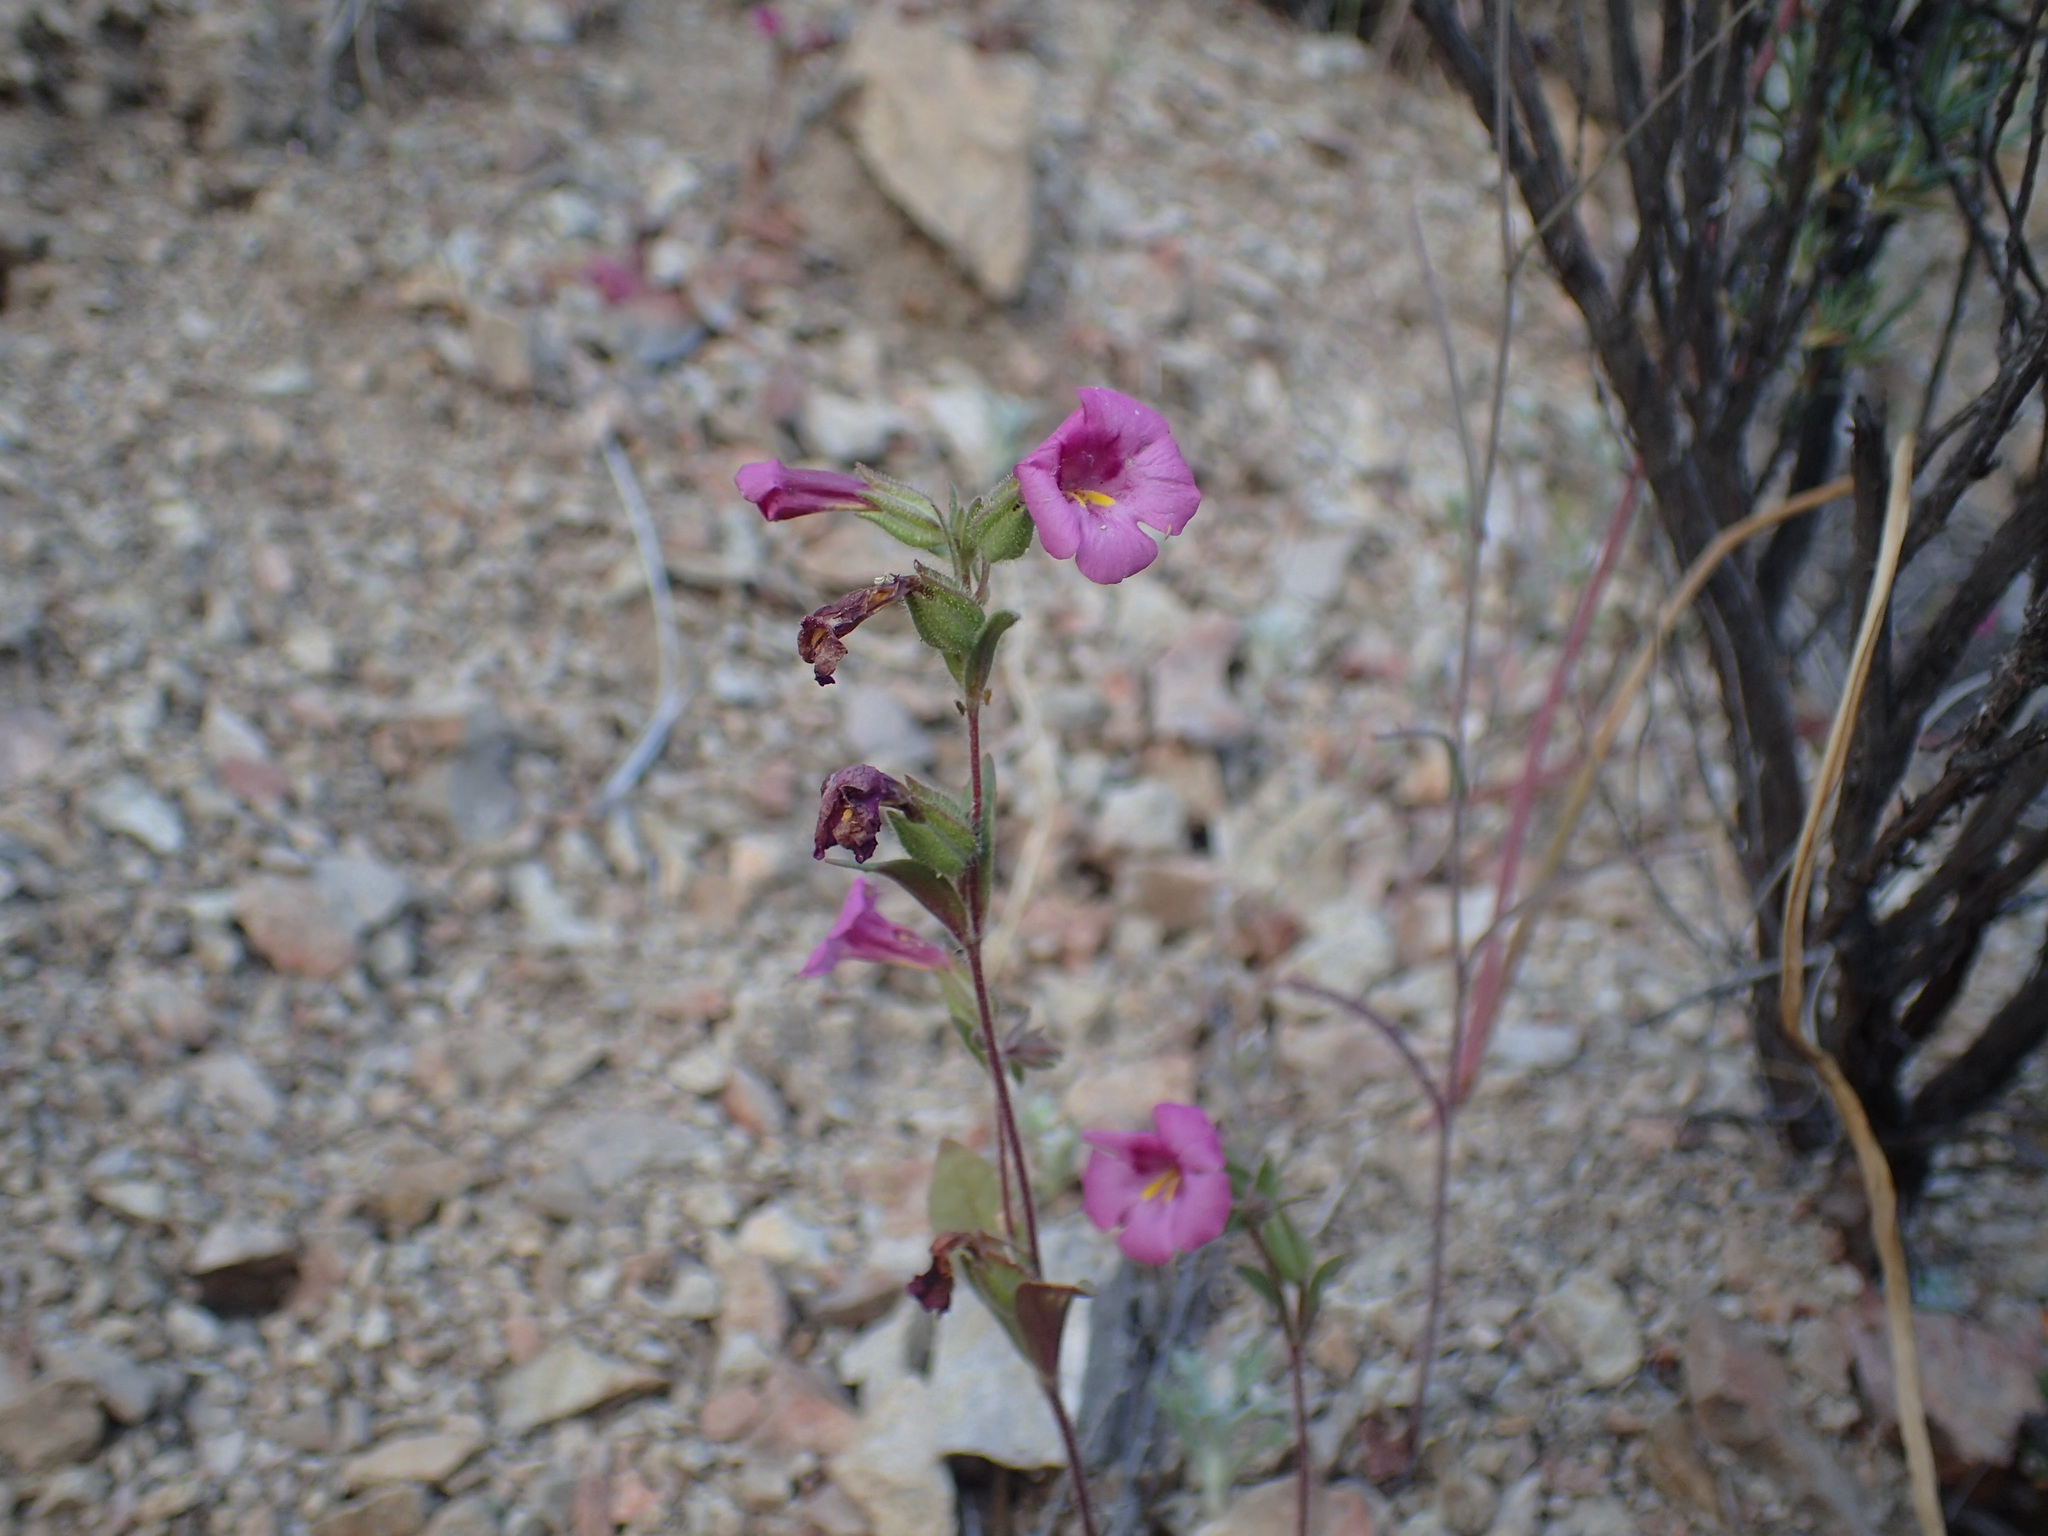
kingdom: Plantae
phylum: Tracheophyta
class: Magnoliopsida
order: Lamiales
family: Phrymaceae
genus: Diplacus
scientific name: Diplacus fremontii
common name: Fremont's monkey-flower
